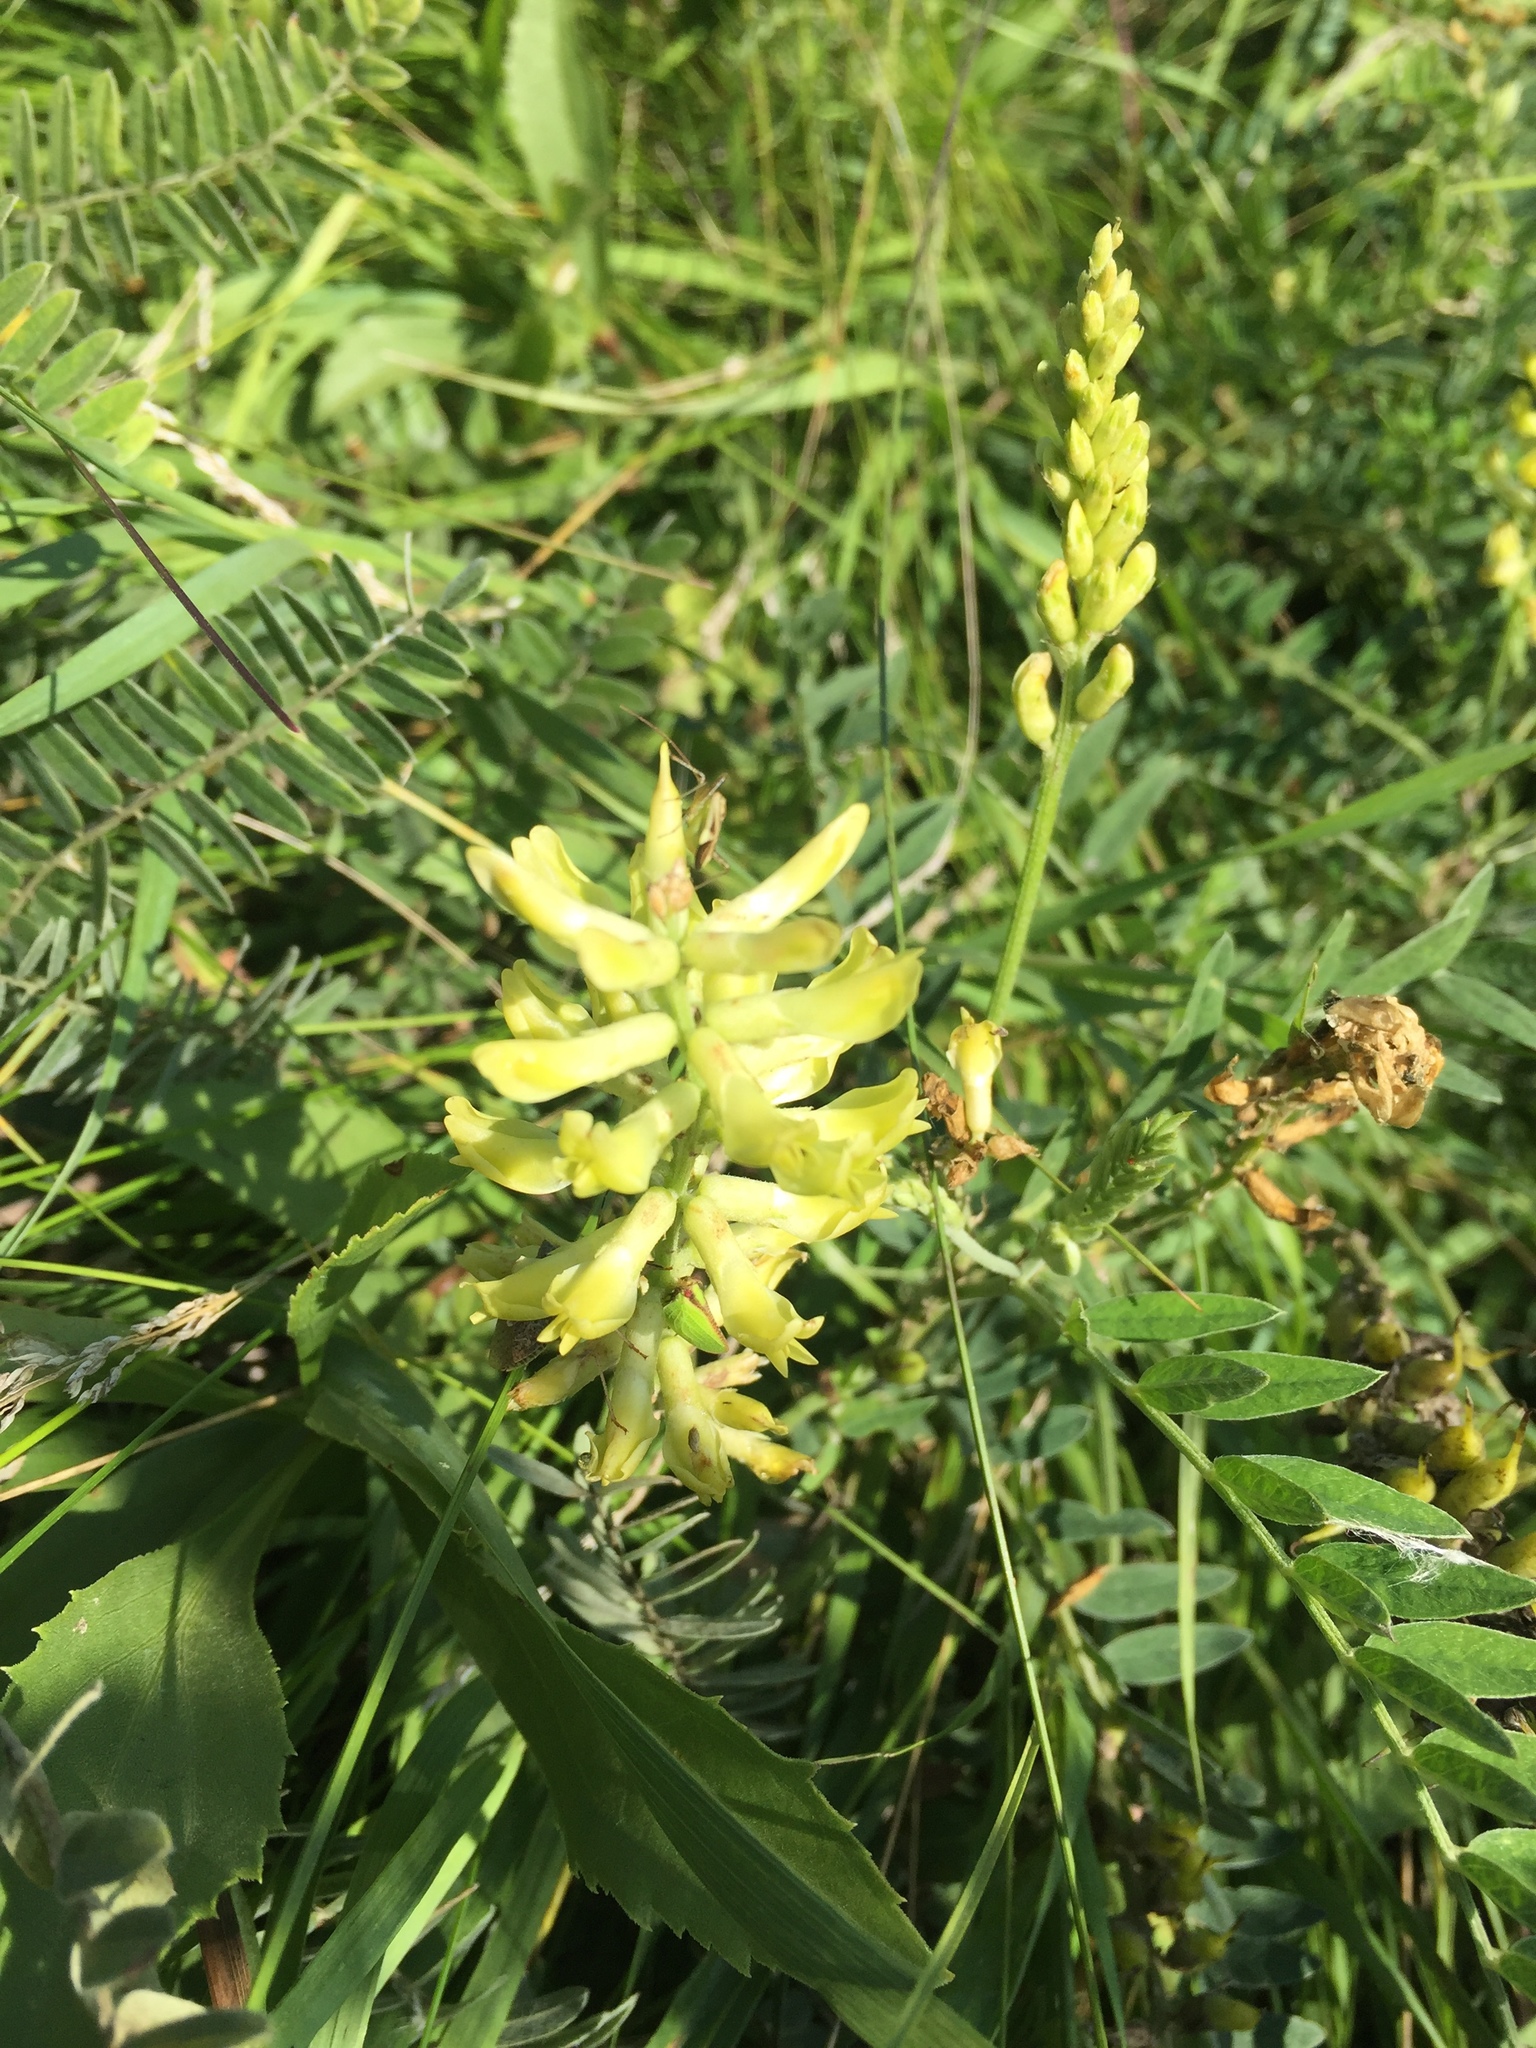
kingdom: Plantae
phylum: Tracheophyta
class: Magnoliopsida
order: Fabales
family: Fabaceae
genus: Astragalus
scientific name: Astragalus canadensis
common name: Canada milk-vetch
